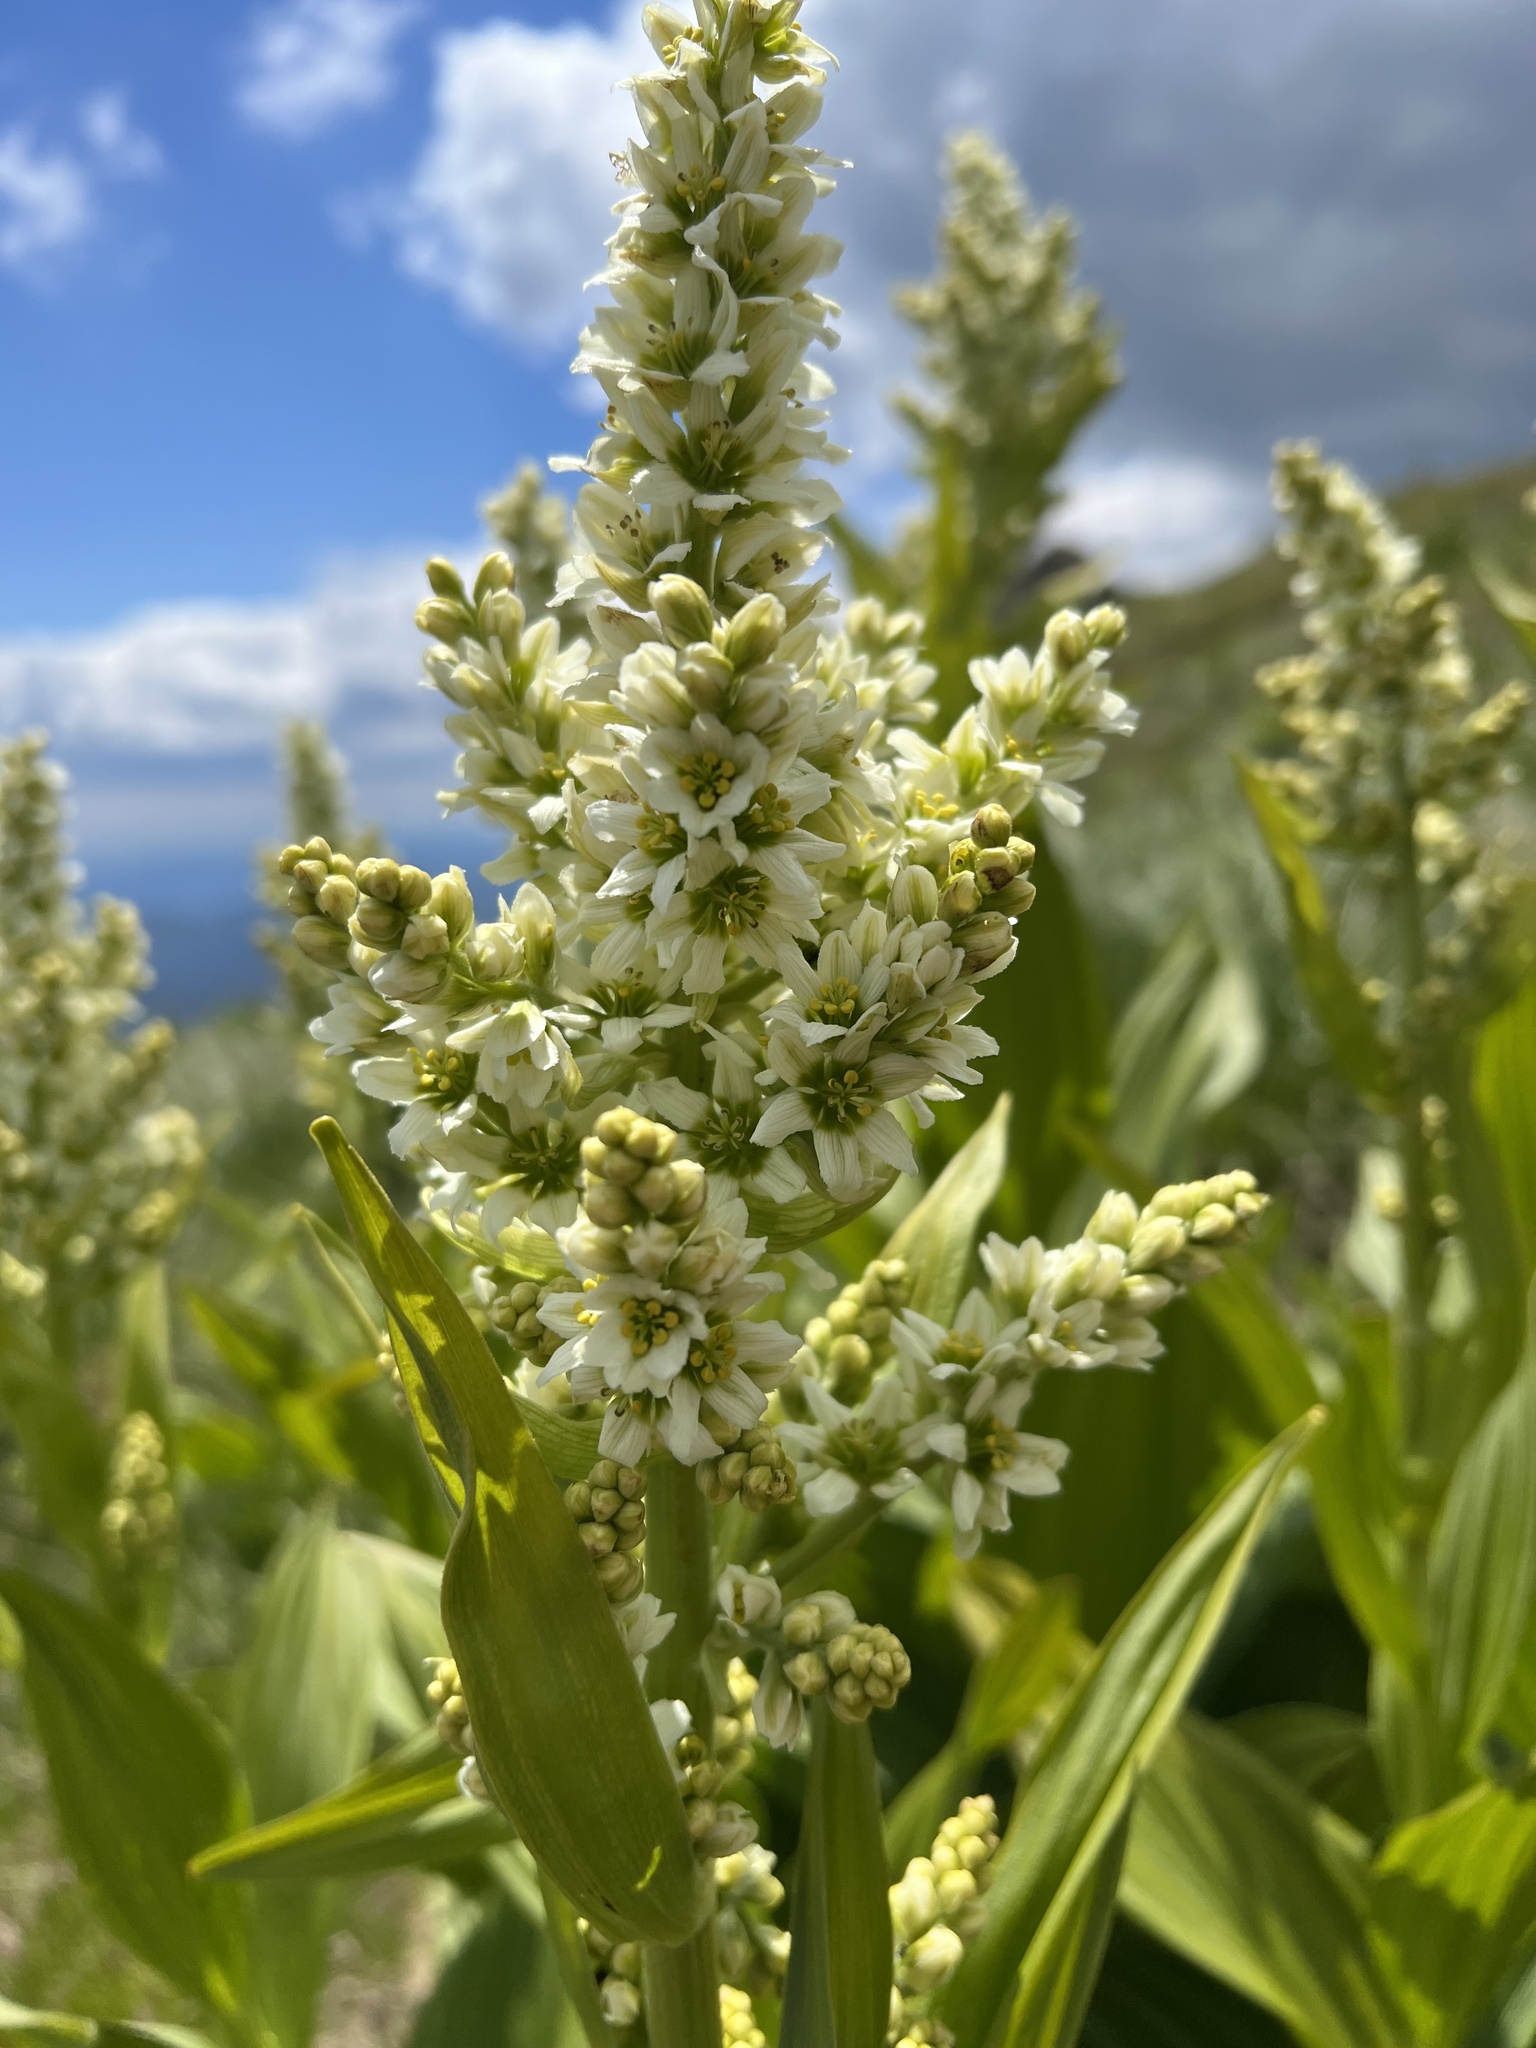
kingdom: Plantae
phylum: Tracheophyta
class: Liliopsida
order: Liliales
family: Melanthiaceae
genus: Veratrum
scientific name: Veratrum album
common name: White veratrum
